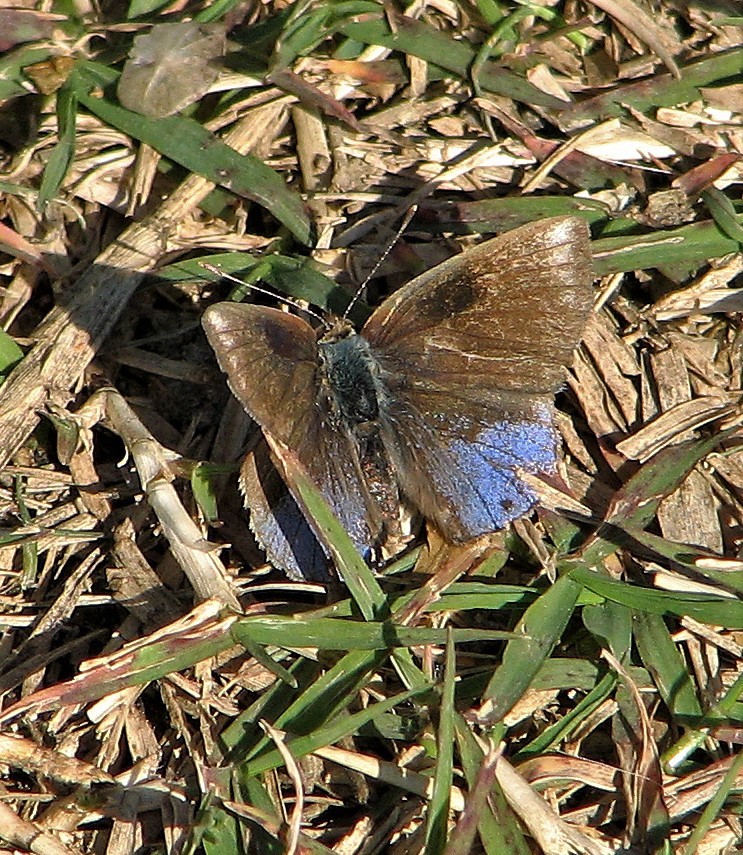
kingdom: Animalia
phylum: Arthropoda
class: Insecta
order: Lepidoptera
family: Lycaenidae
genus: Strymon
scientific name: Strymon bazochii
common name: Lantana scrub-hairstreak
